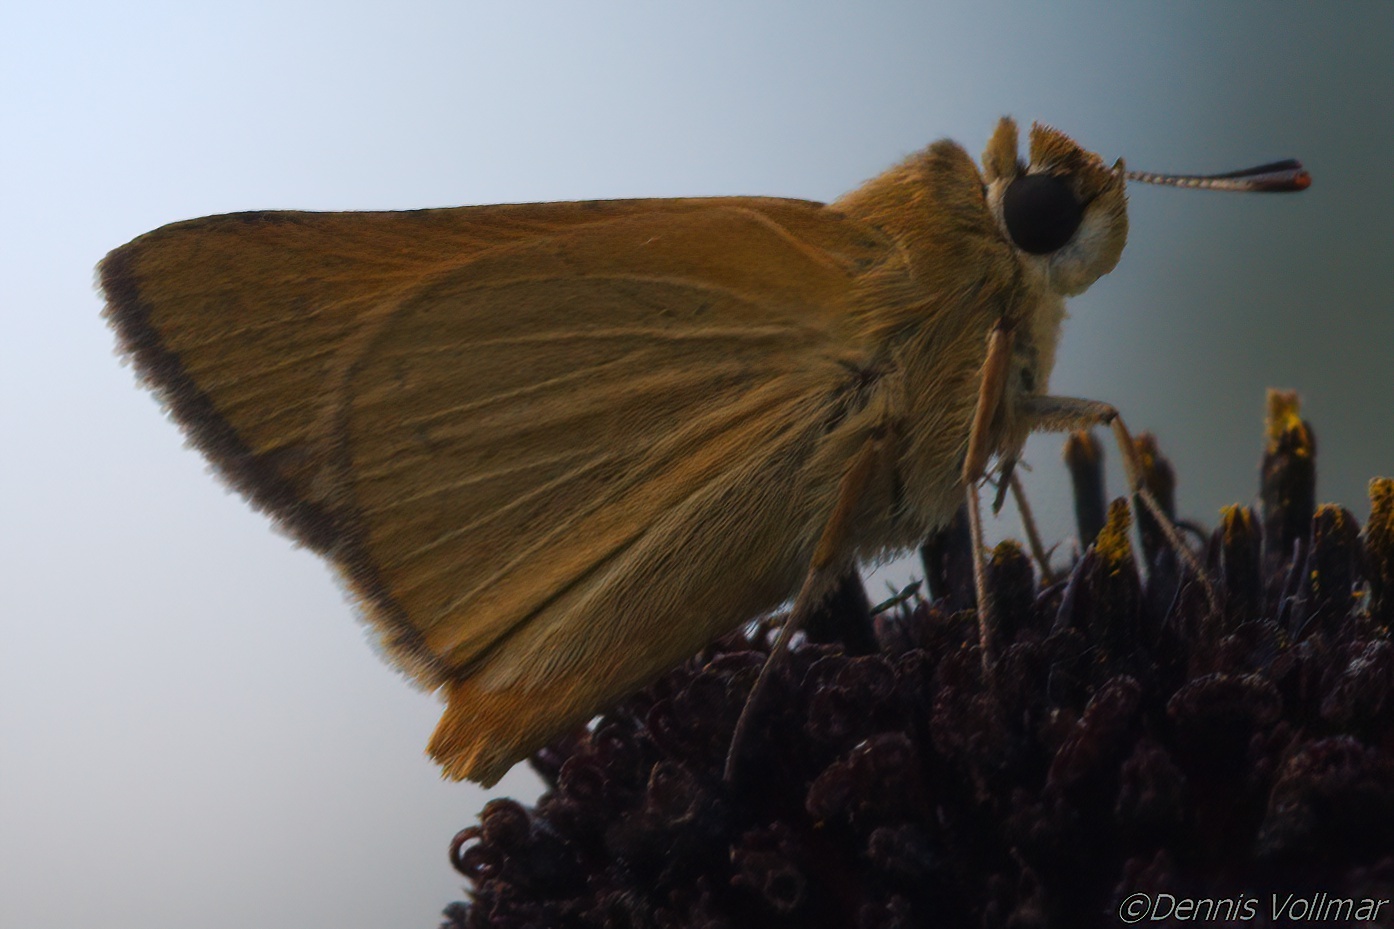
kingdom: Animalia
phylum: Arthropoda
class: Insecta
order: Lepidoptera
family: Hesperiidae
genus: Atrytone
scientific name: Atrytone arogos
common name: Arogos skipper
